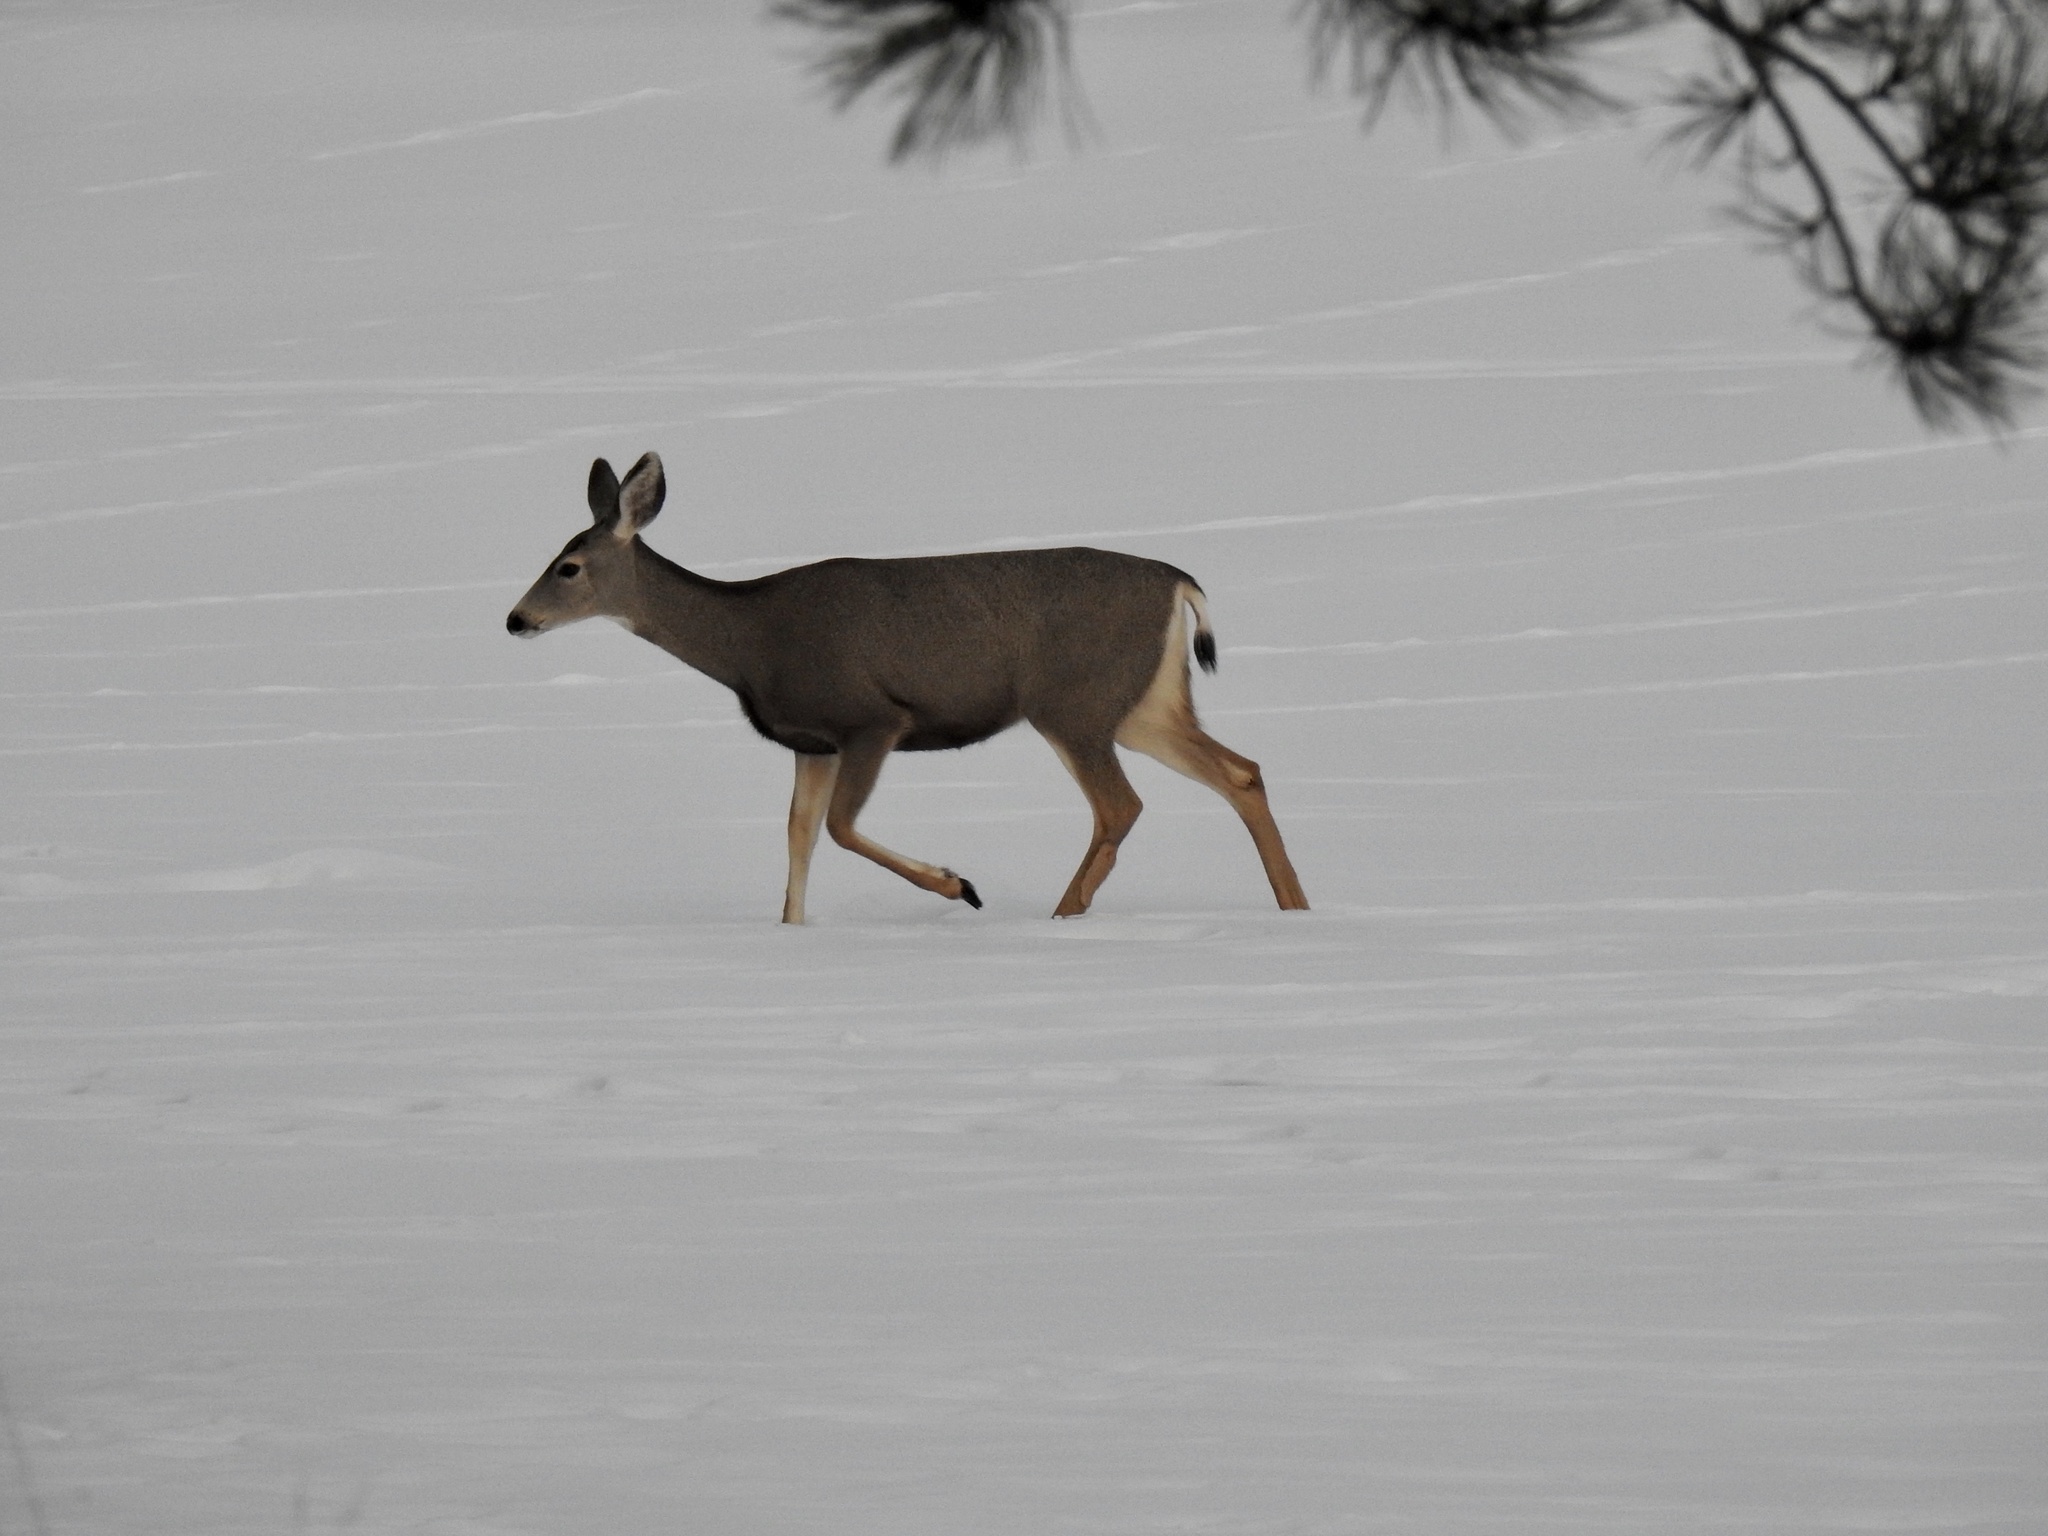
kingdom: Animalia
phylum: Chordata
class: Mammalia
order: Artiodactyla
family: Cervidae
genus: Odocoileus
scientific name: Odocoileus hemionus
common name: Mule deer
